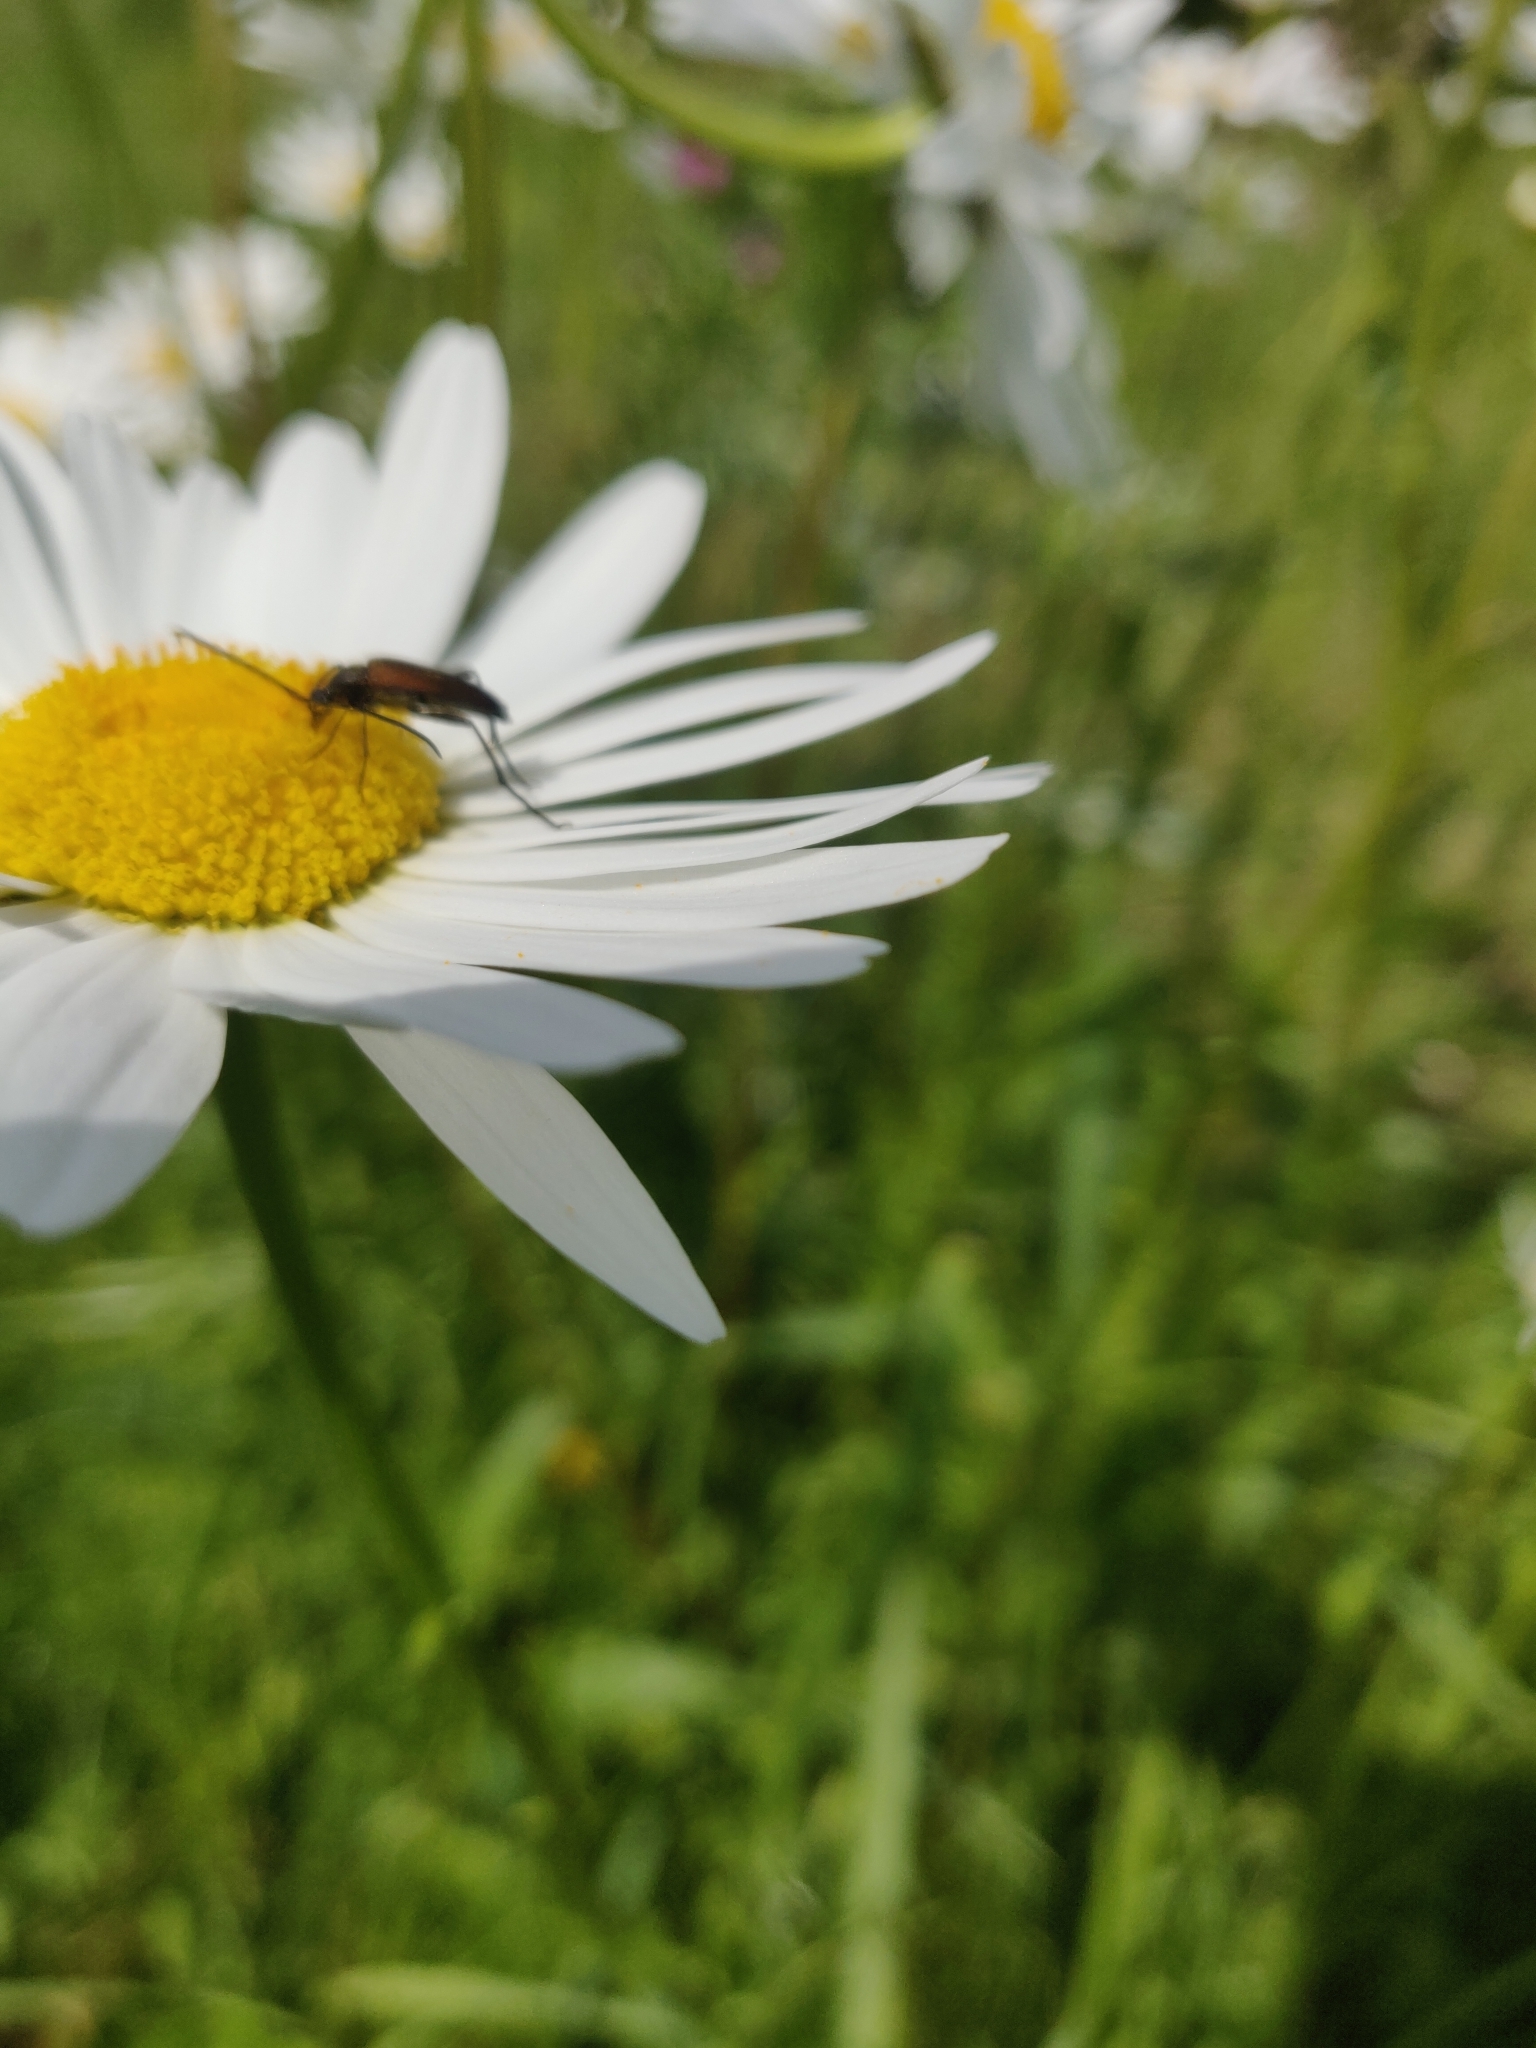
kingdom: Animalia
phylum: Arthropoda
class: Insecta
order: Coleoptera
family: Cerambycidae
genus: Stenurella
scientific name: Stenurella melanura
